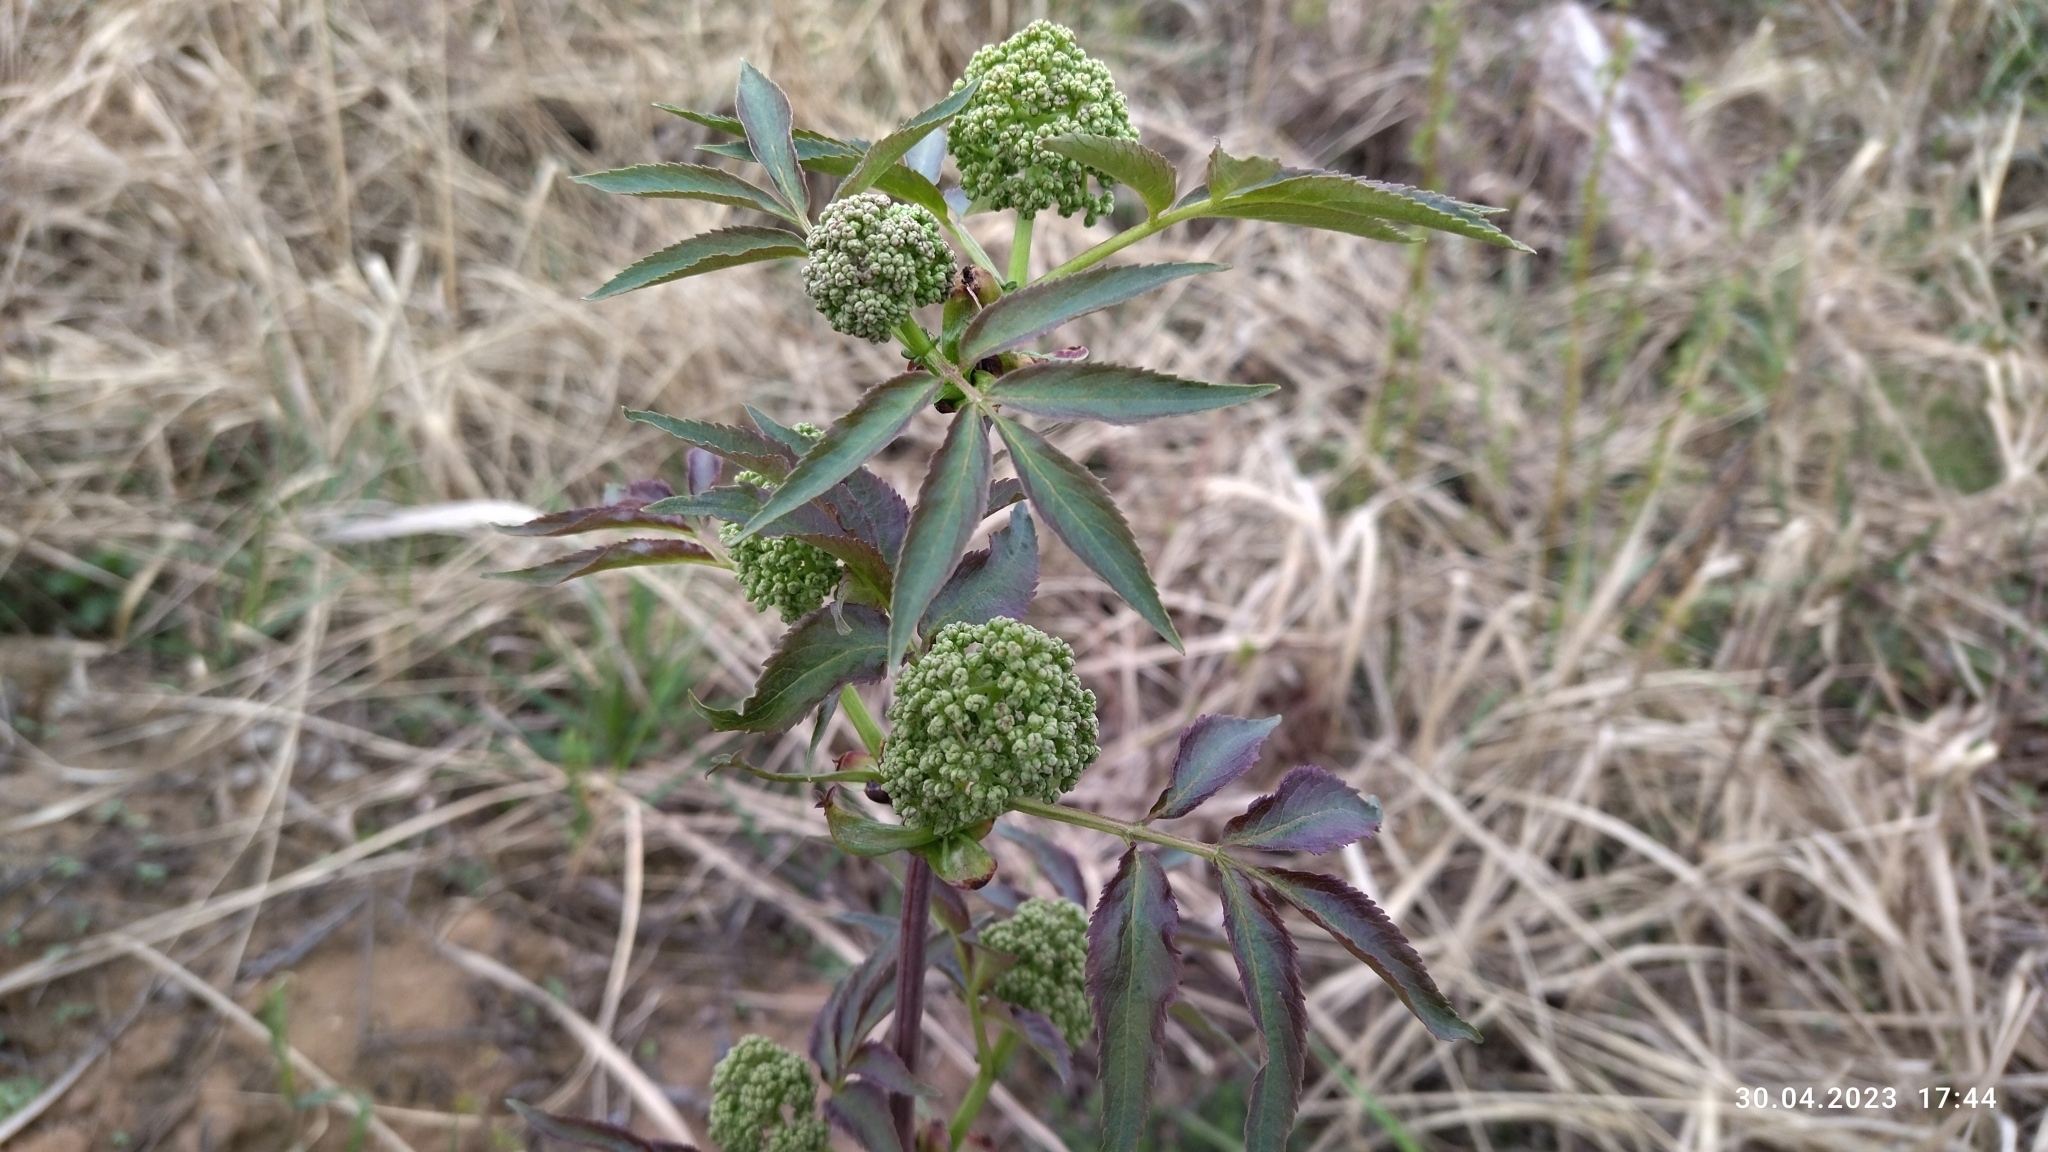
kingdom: Plantae
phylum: Tracheophyta
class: Magnoliopsida
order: Dipsacales
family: Viburnaceae
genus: Sambucus
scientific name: Sambucus racemosa
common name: Red-berried elder
